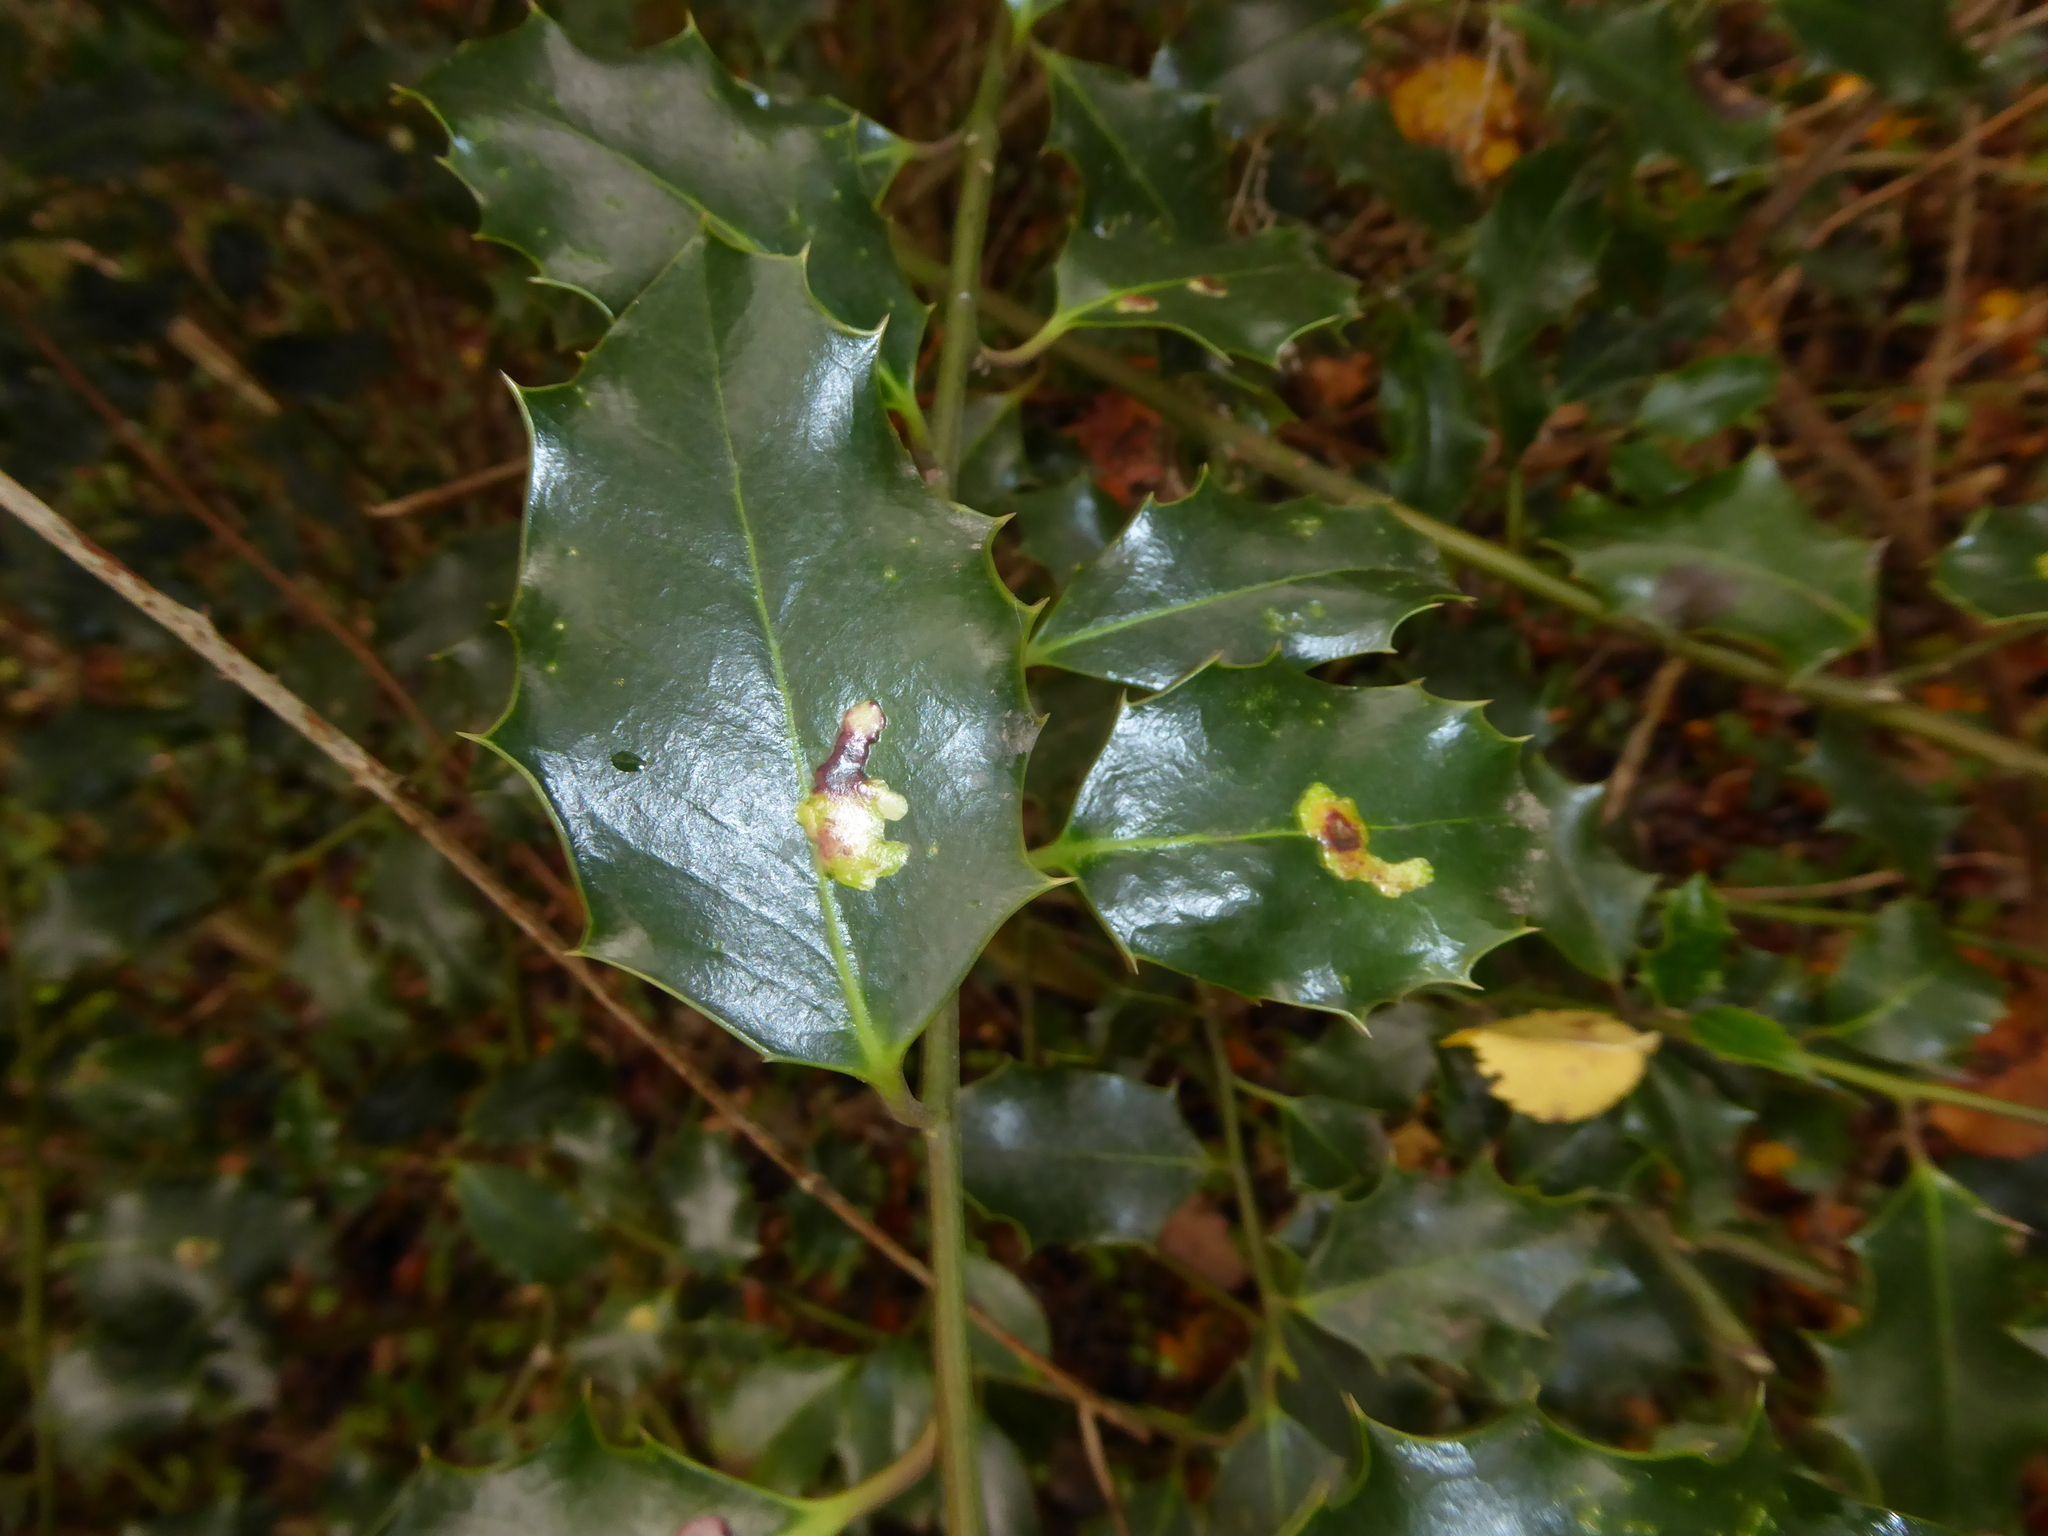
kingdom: Animalia
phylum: Arthropoda
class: Insecta
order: Diptera
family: Agromyzidae
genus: Phytomyza
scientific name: Phytomyza ilicis
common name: Holly leafminer
